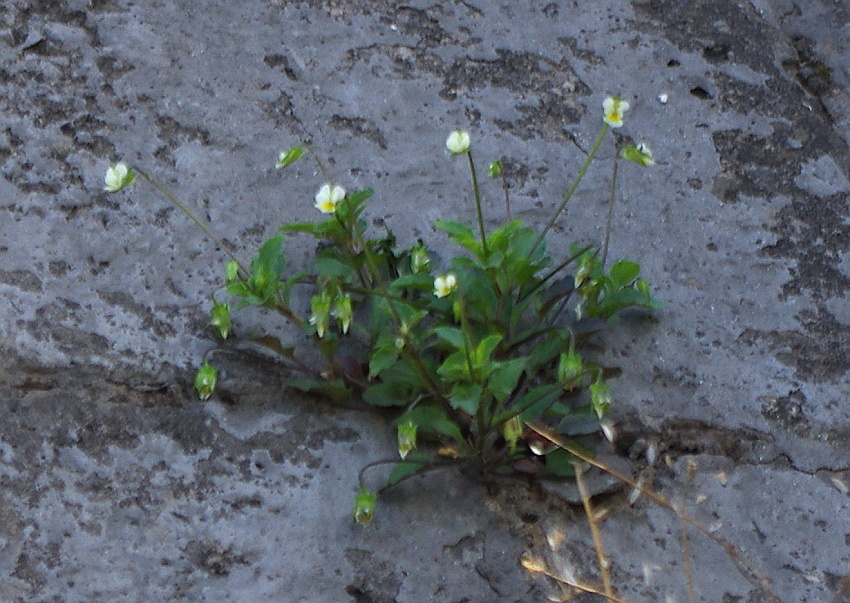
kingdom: Plantae
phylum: Tracheophyta
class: Magnoliopsida
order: Malpighiales
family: Violaceae
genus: Viola
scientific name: Viola arvensis
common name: Field pansy
